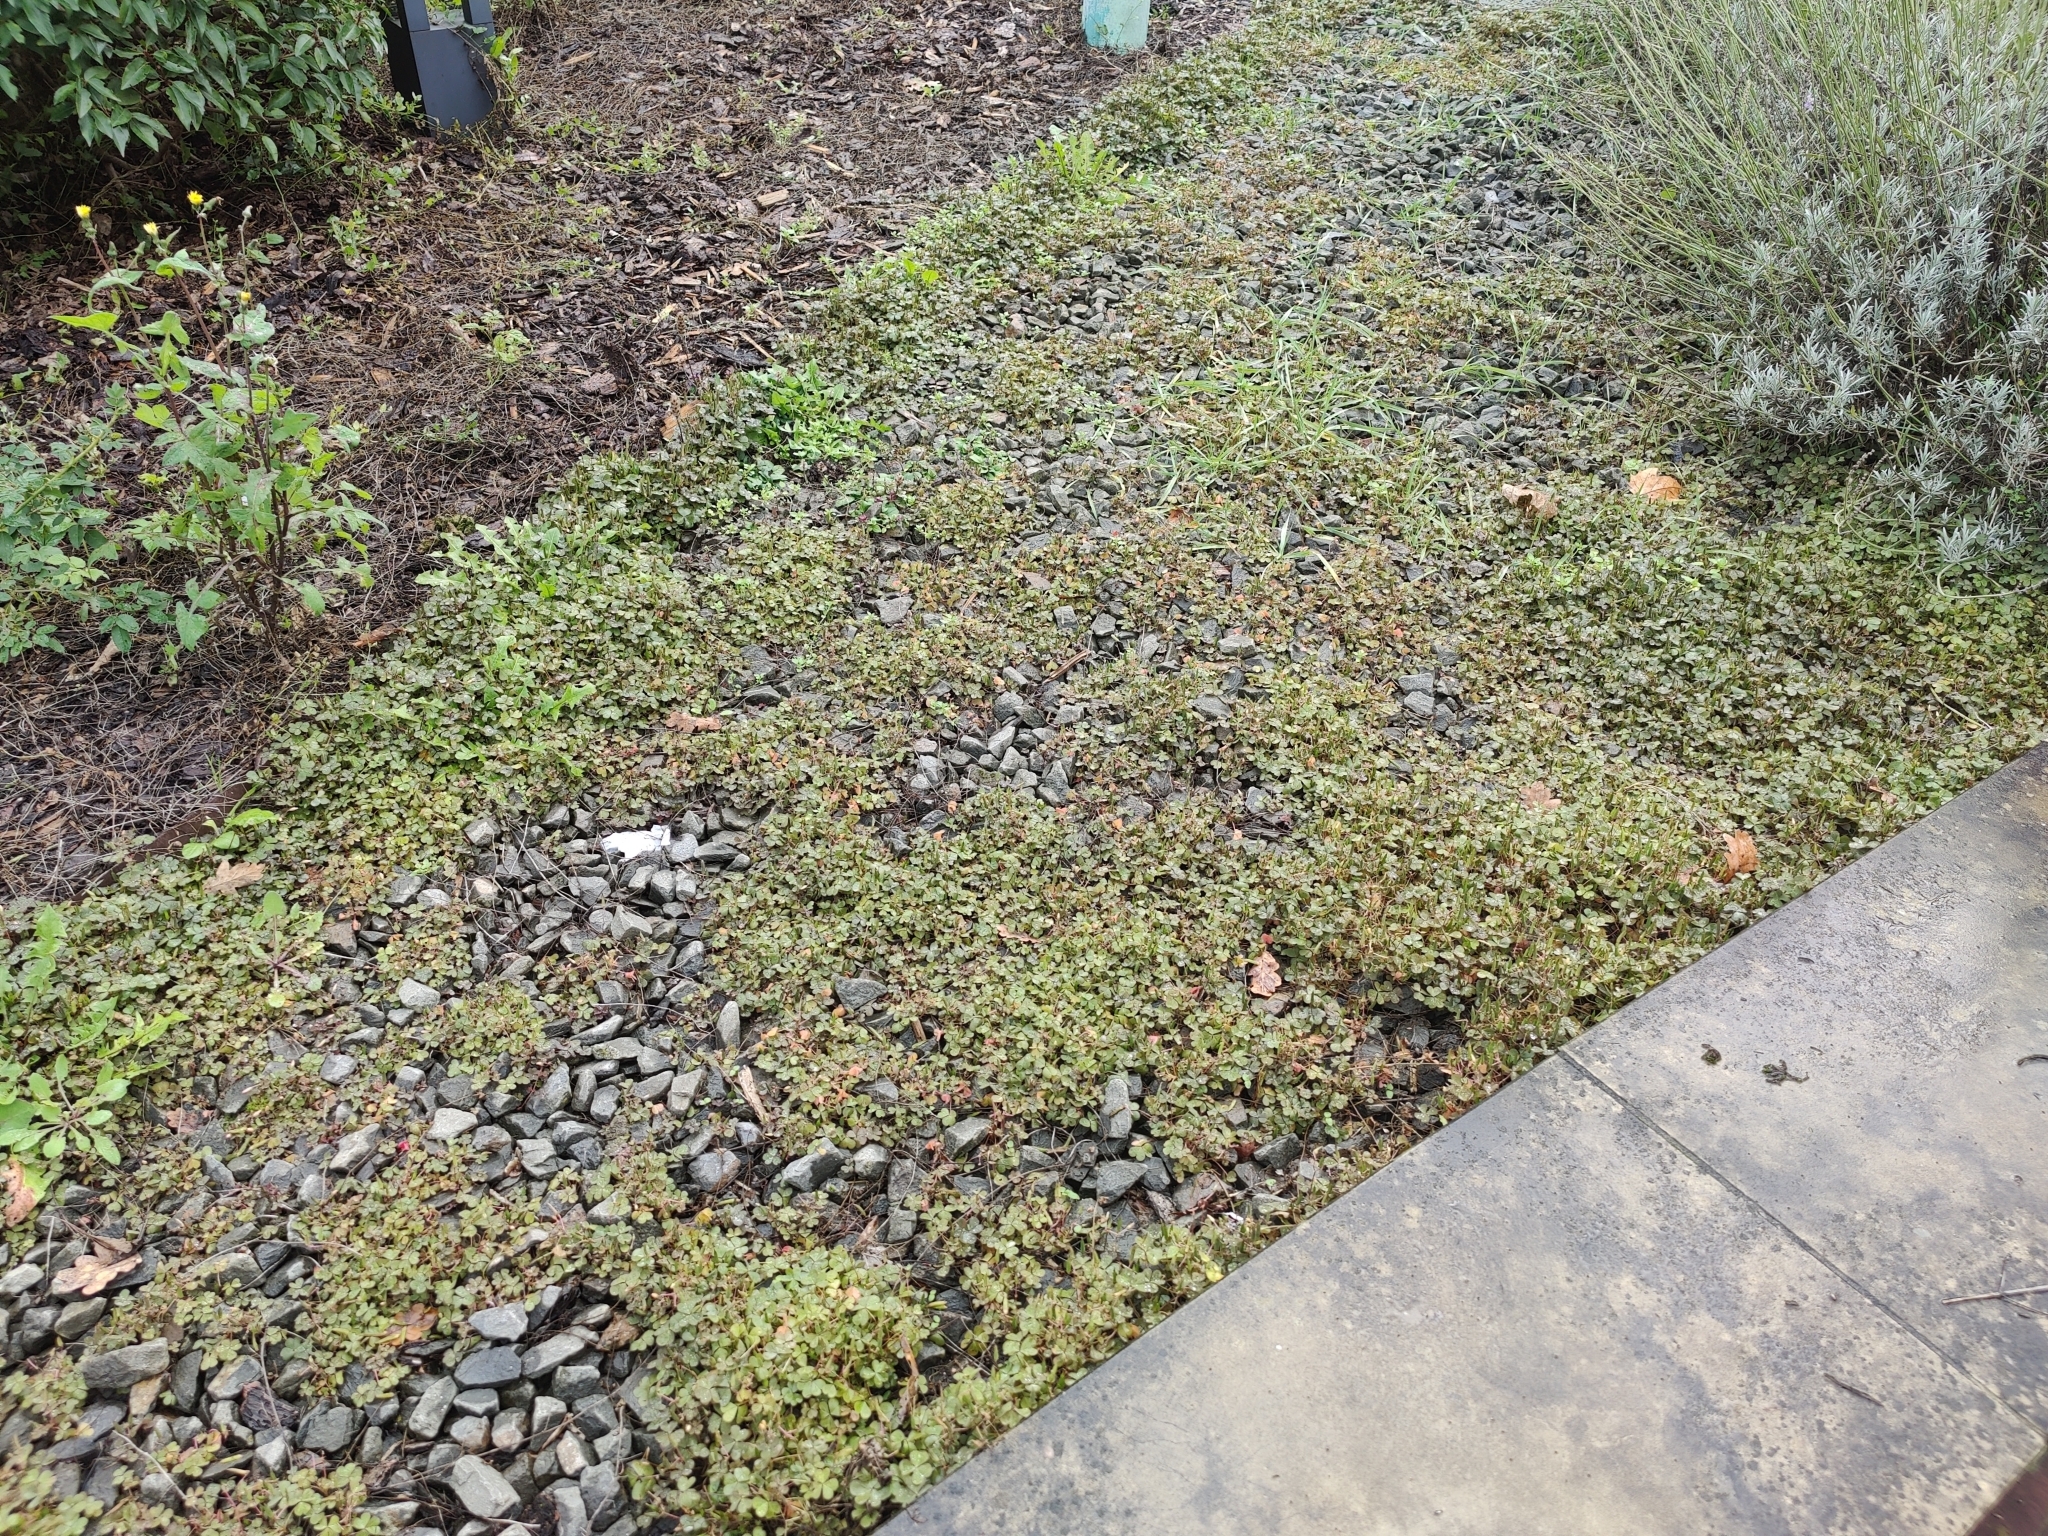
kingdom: Plantae
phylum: Tracheophyta
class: Magnoliopsida
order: Oxalidales
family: Oxalidaceae
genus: Oxalis
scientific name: Oxalis corniculata
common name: Procumbent yellow-sorrel
